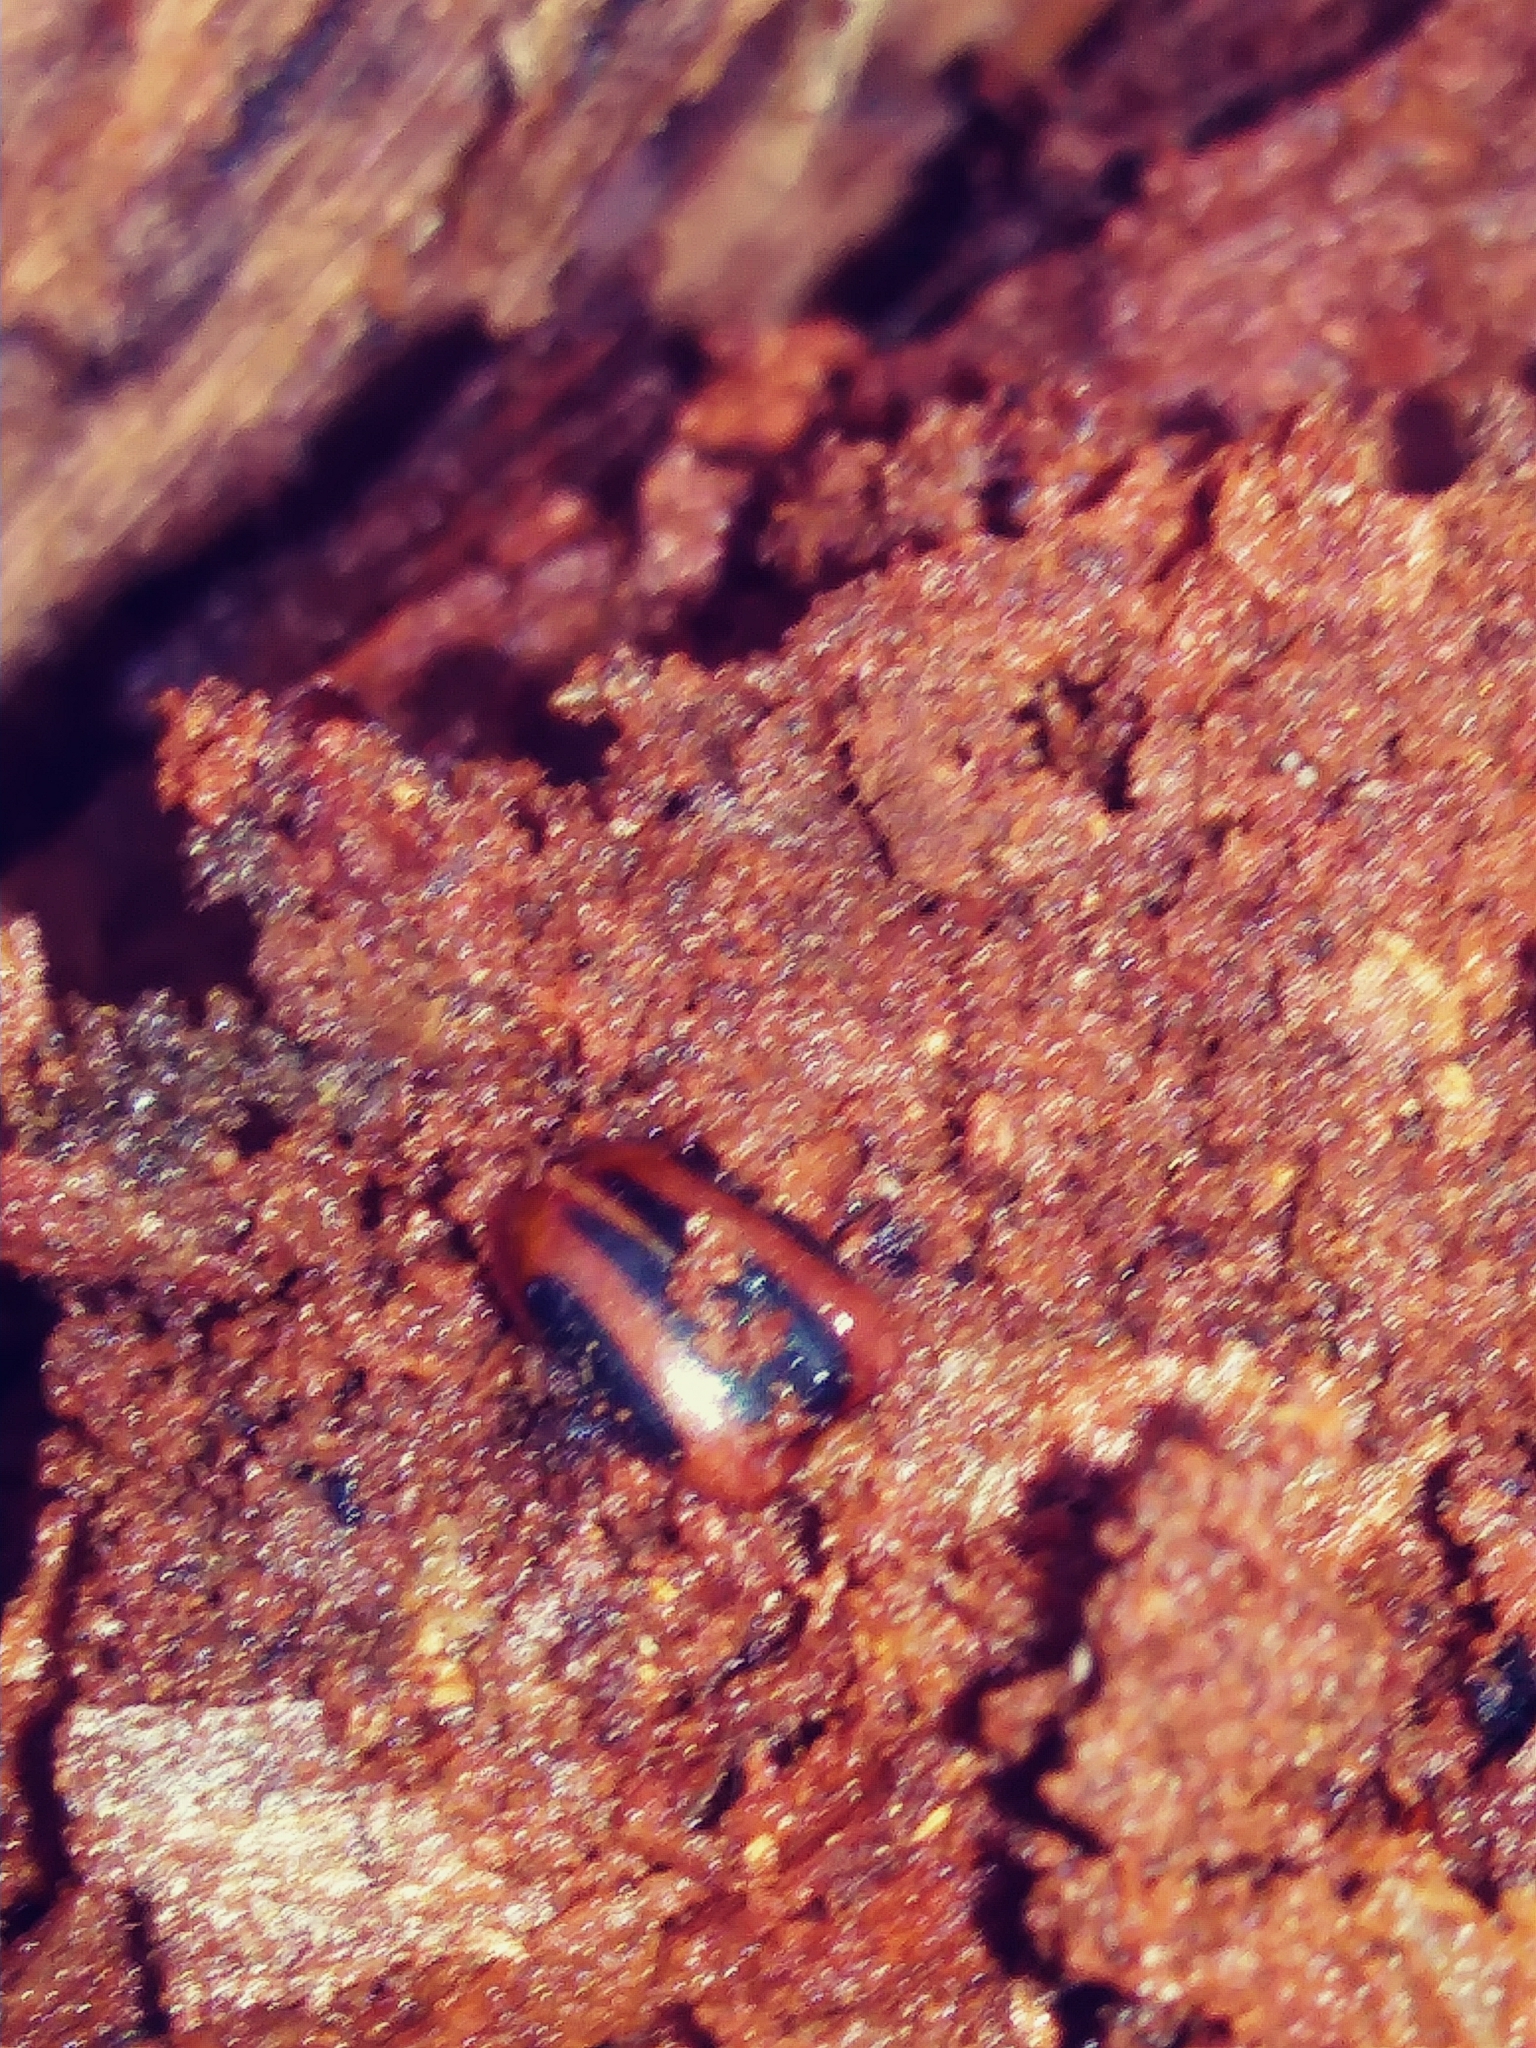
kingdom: Animalia
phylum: Arthropoda
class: Insecta
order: Coleoptera
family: Endomychidae
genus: Aphorista
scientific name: Aphorista vittata
